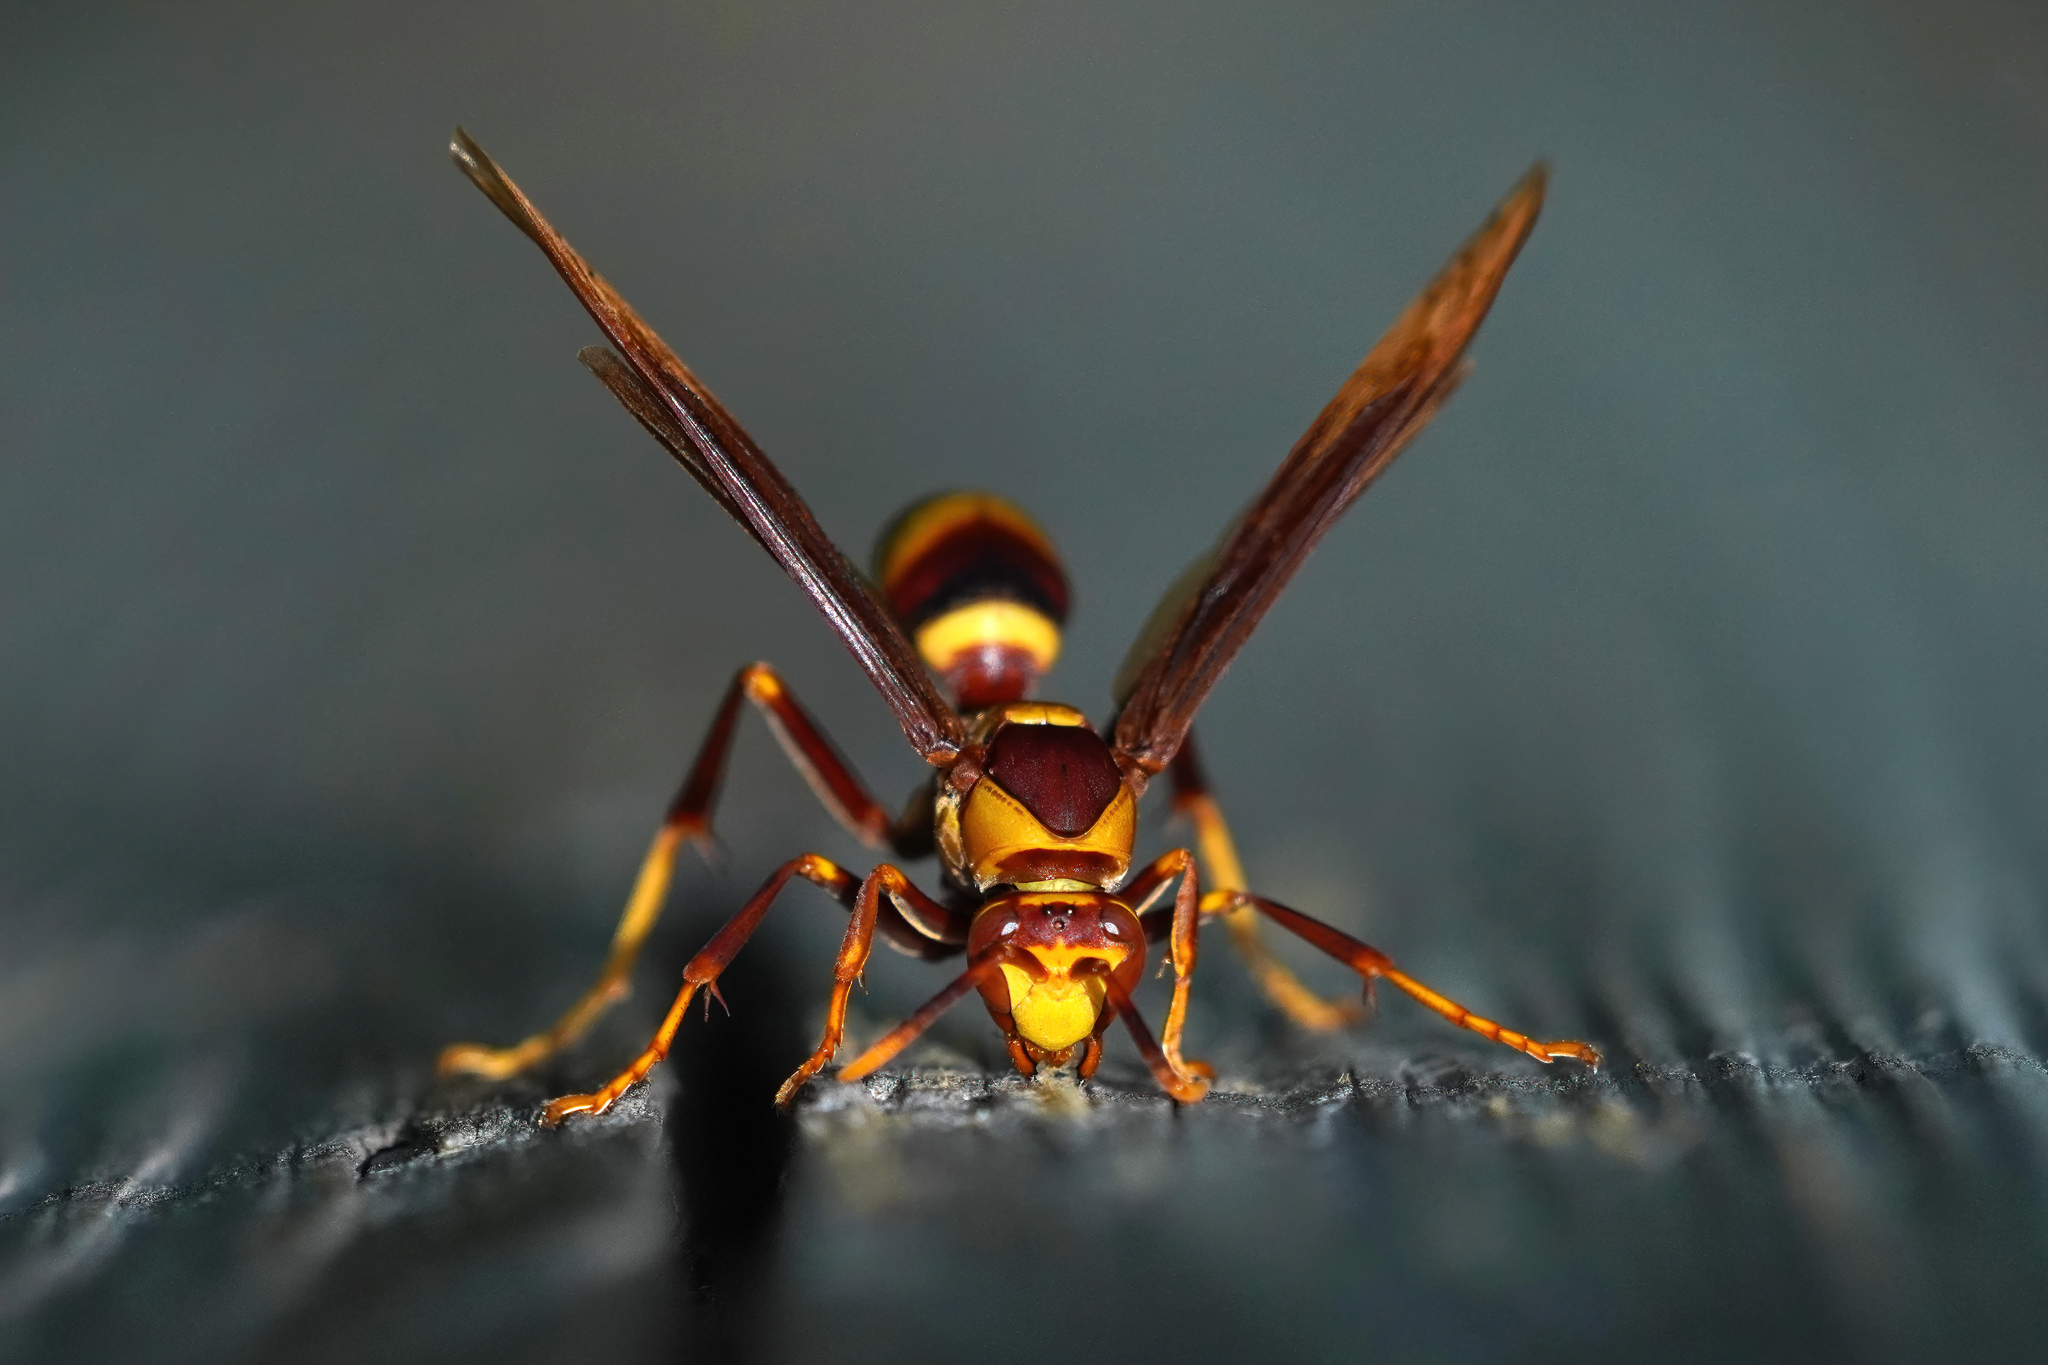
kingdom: Animalia
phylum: Arthropoda
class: Insecta
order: Hymenoptera
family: Eumenidae
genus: Polistes
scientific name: Polistes major
